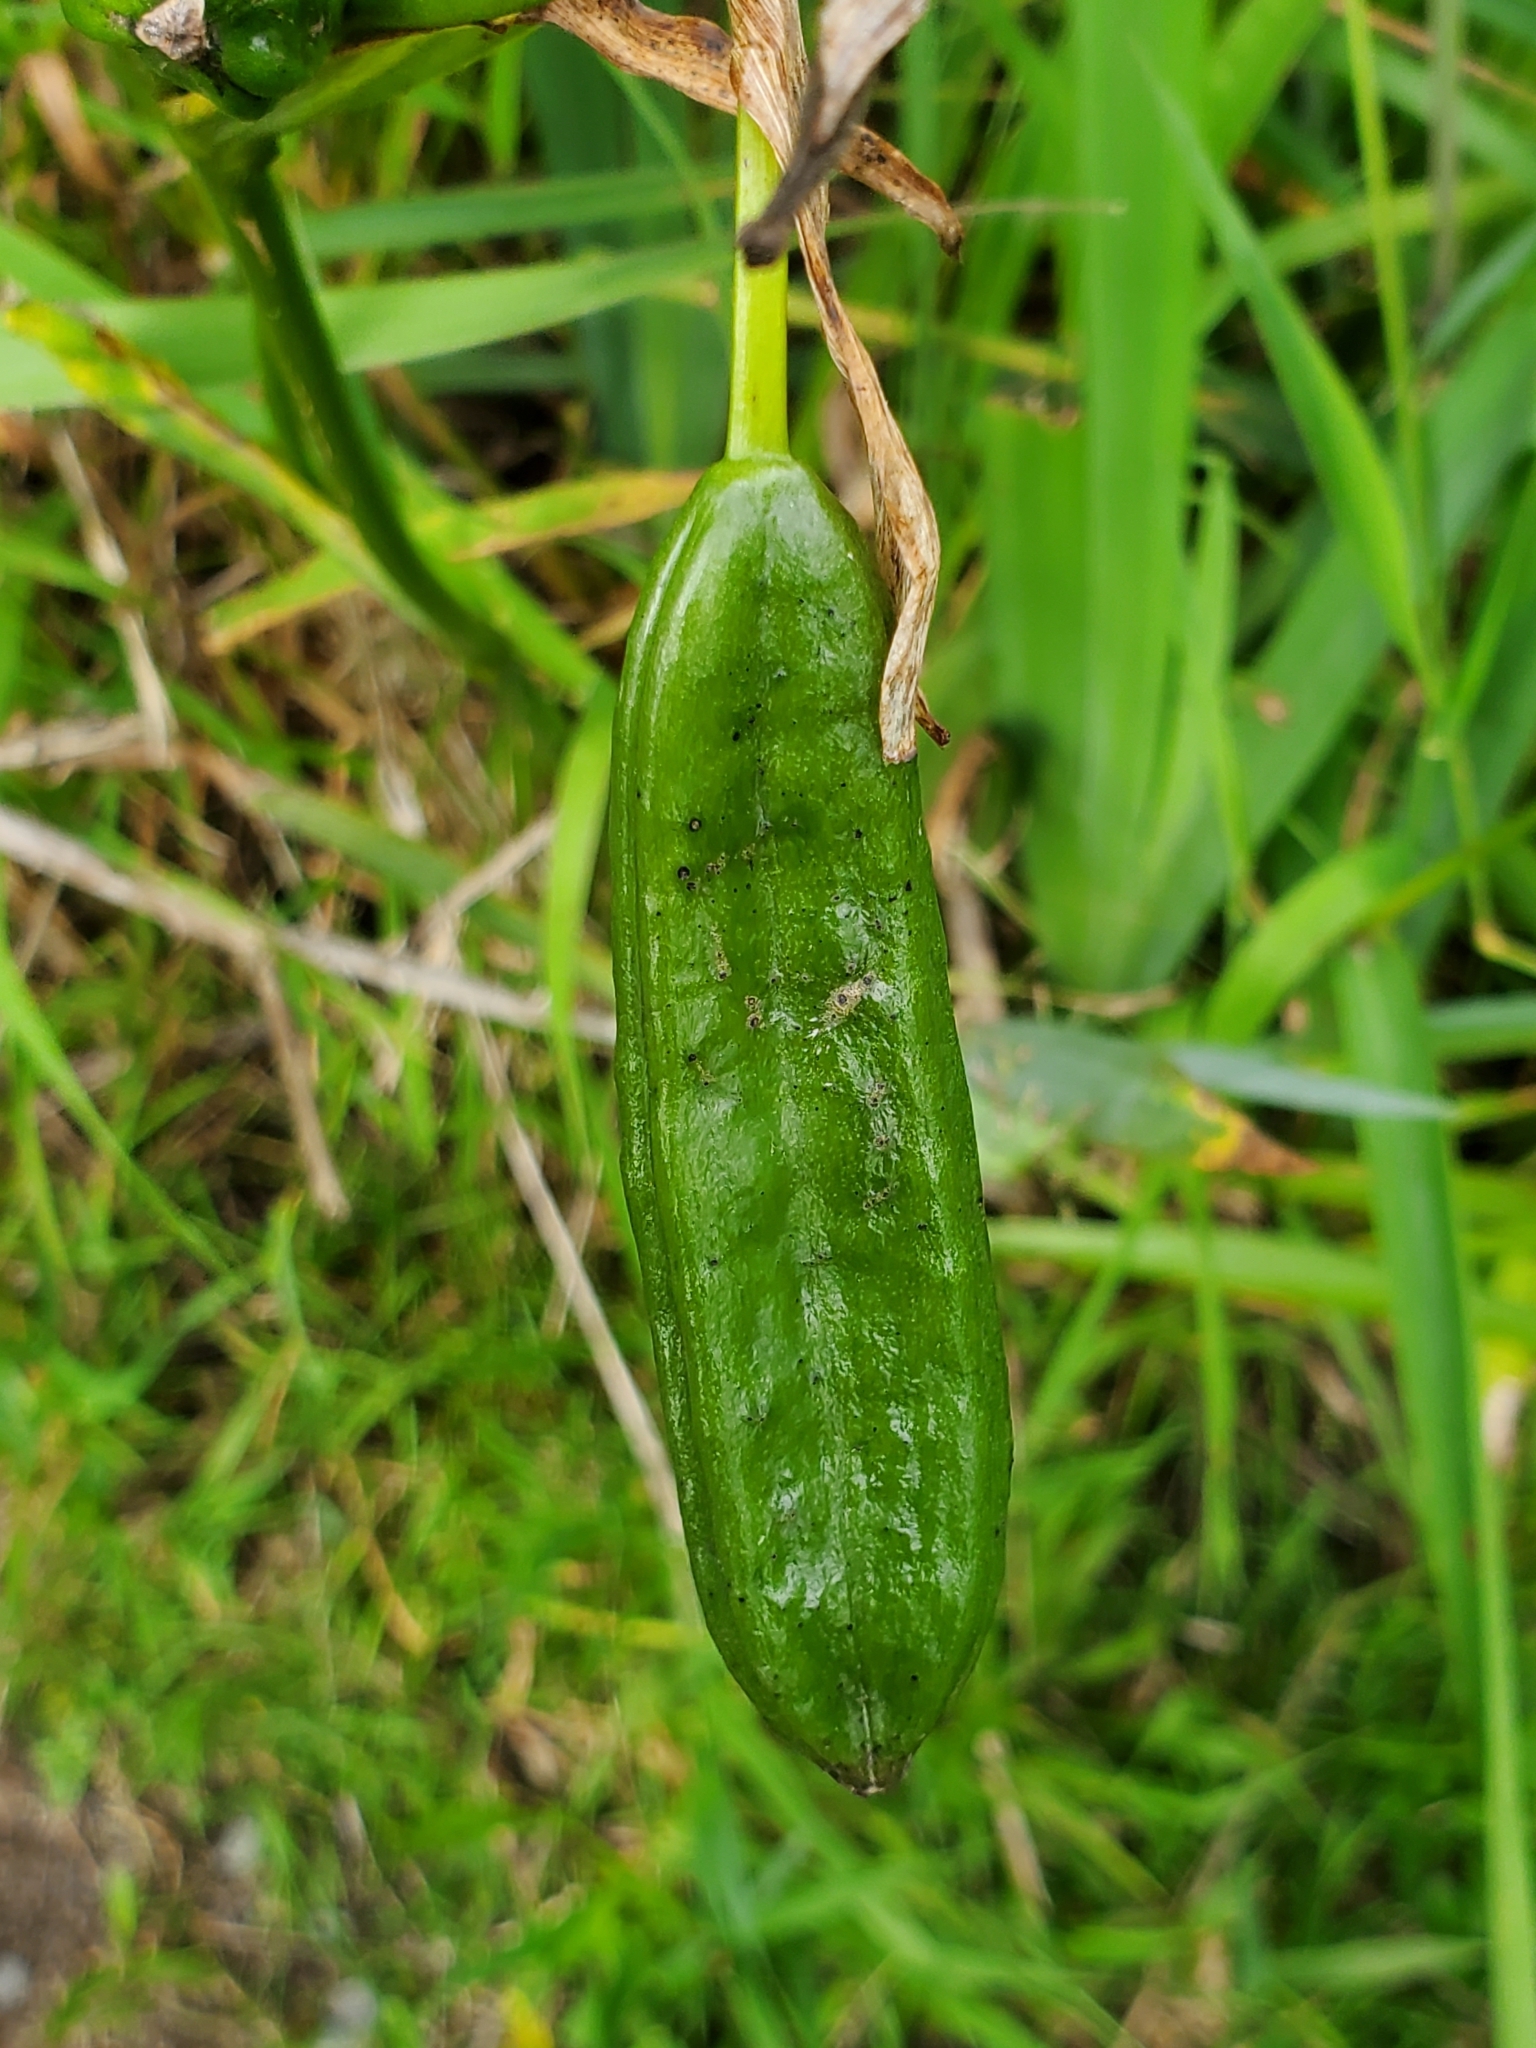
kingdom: Plantae
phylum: Tracheophyta
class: Liliopsida
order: Asparagales
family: Iridaceae
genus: Iris
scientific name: Iris pseudacorus
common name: Yellow flag
